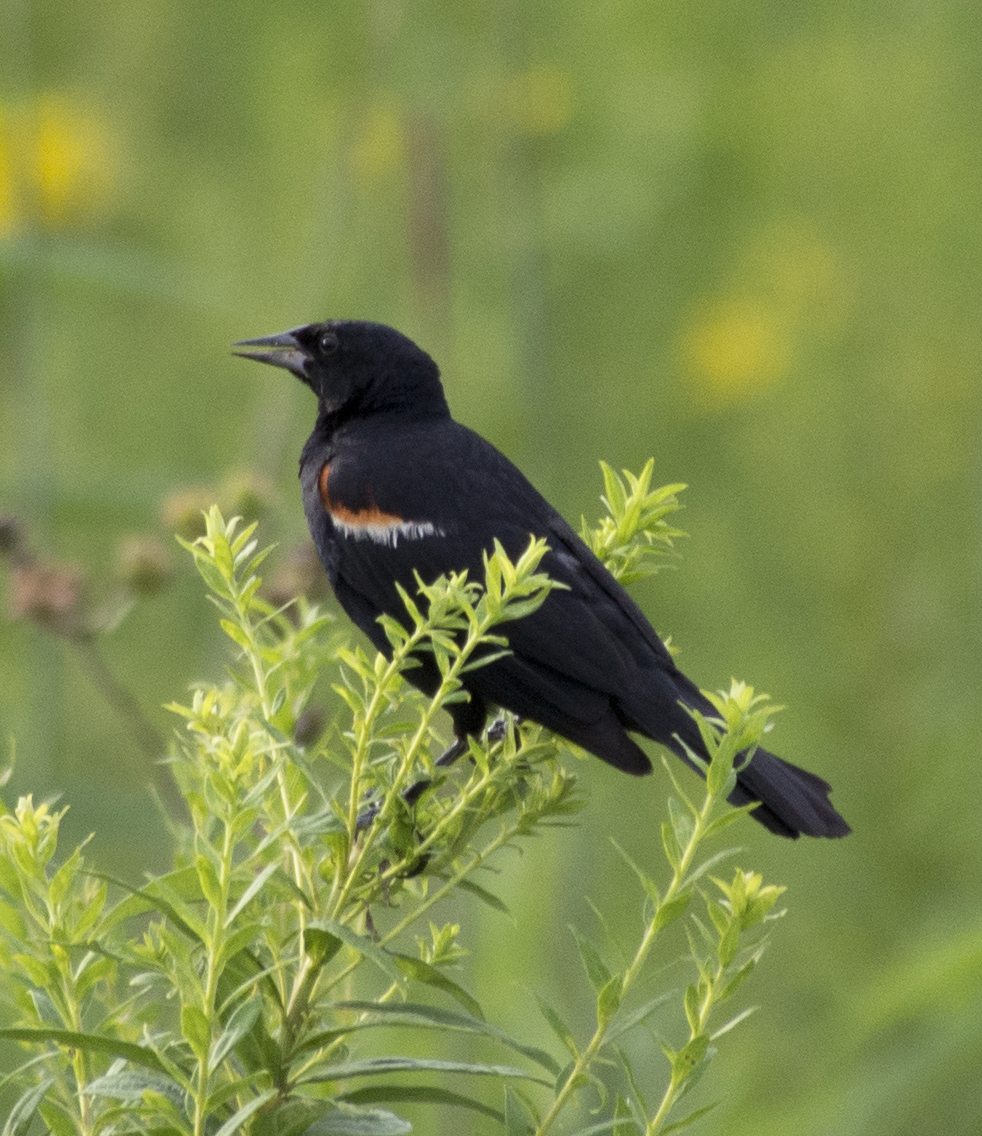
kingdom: Animalia
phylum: Chordata
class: Aves
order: Passeriformes
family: Icteridae
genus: Agelaius
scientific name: Agelaius phoeniceus
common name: Red-winged blackbird
